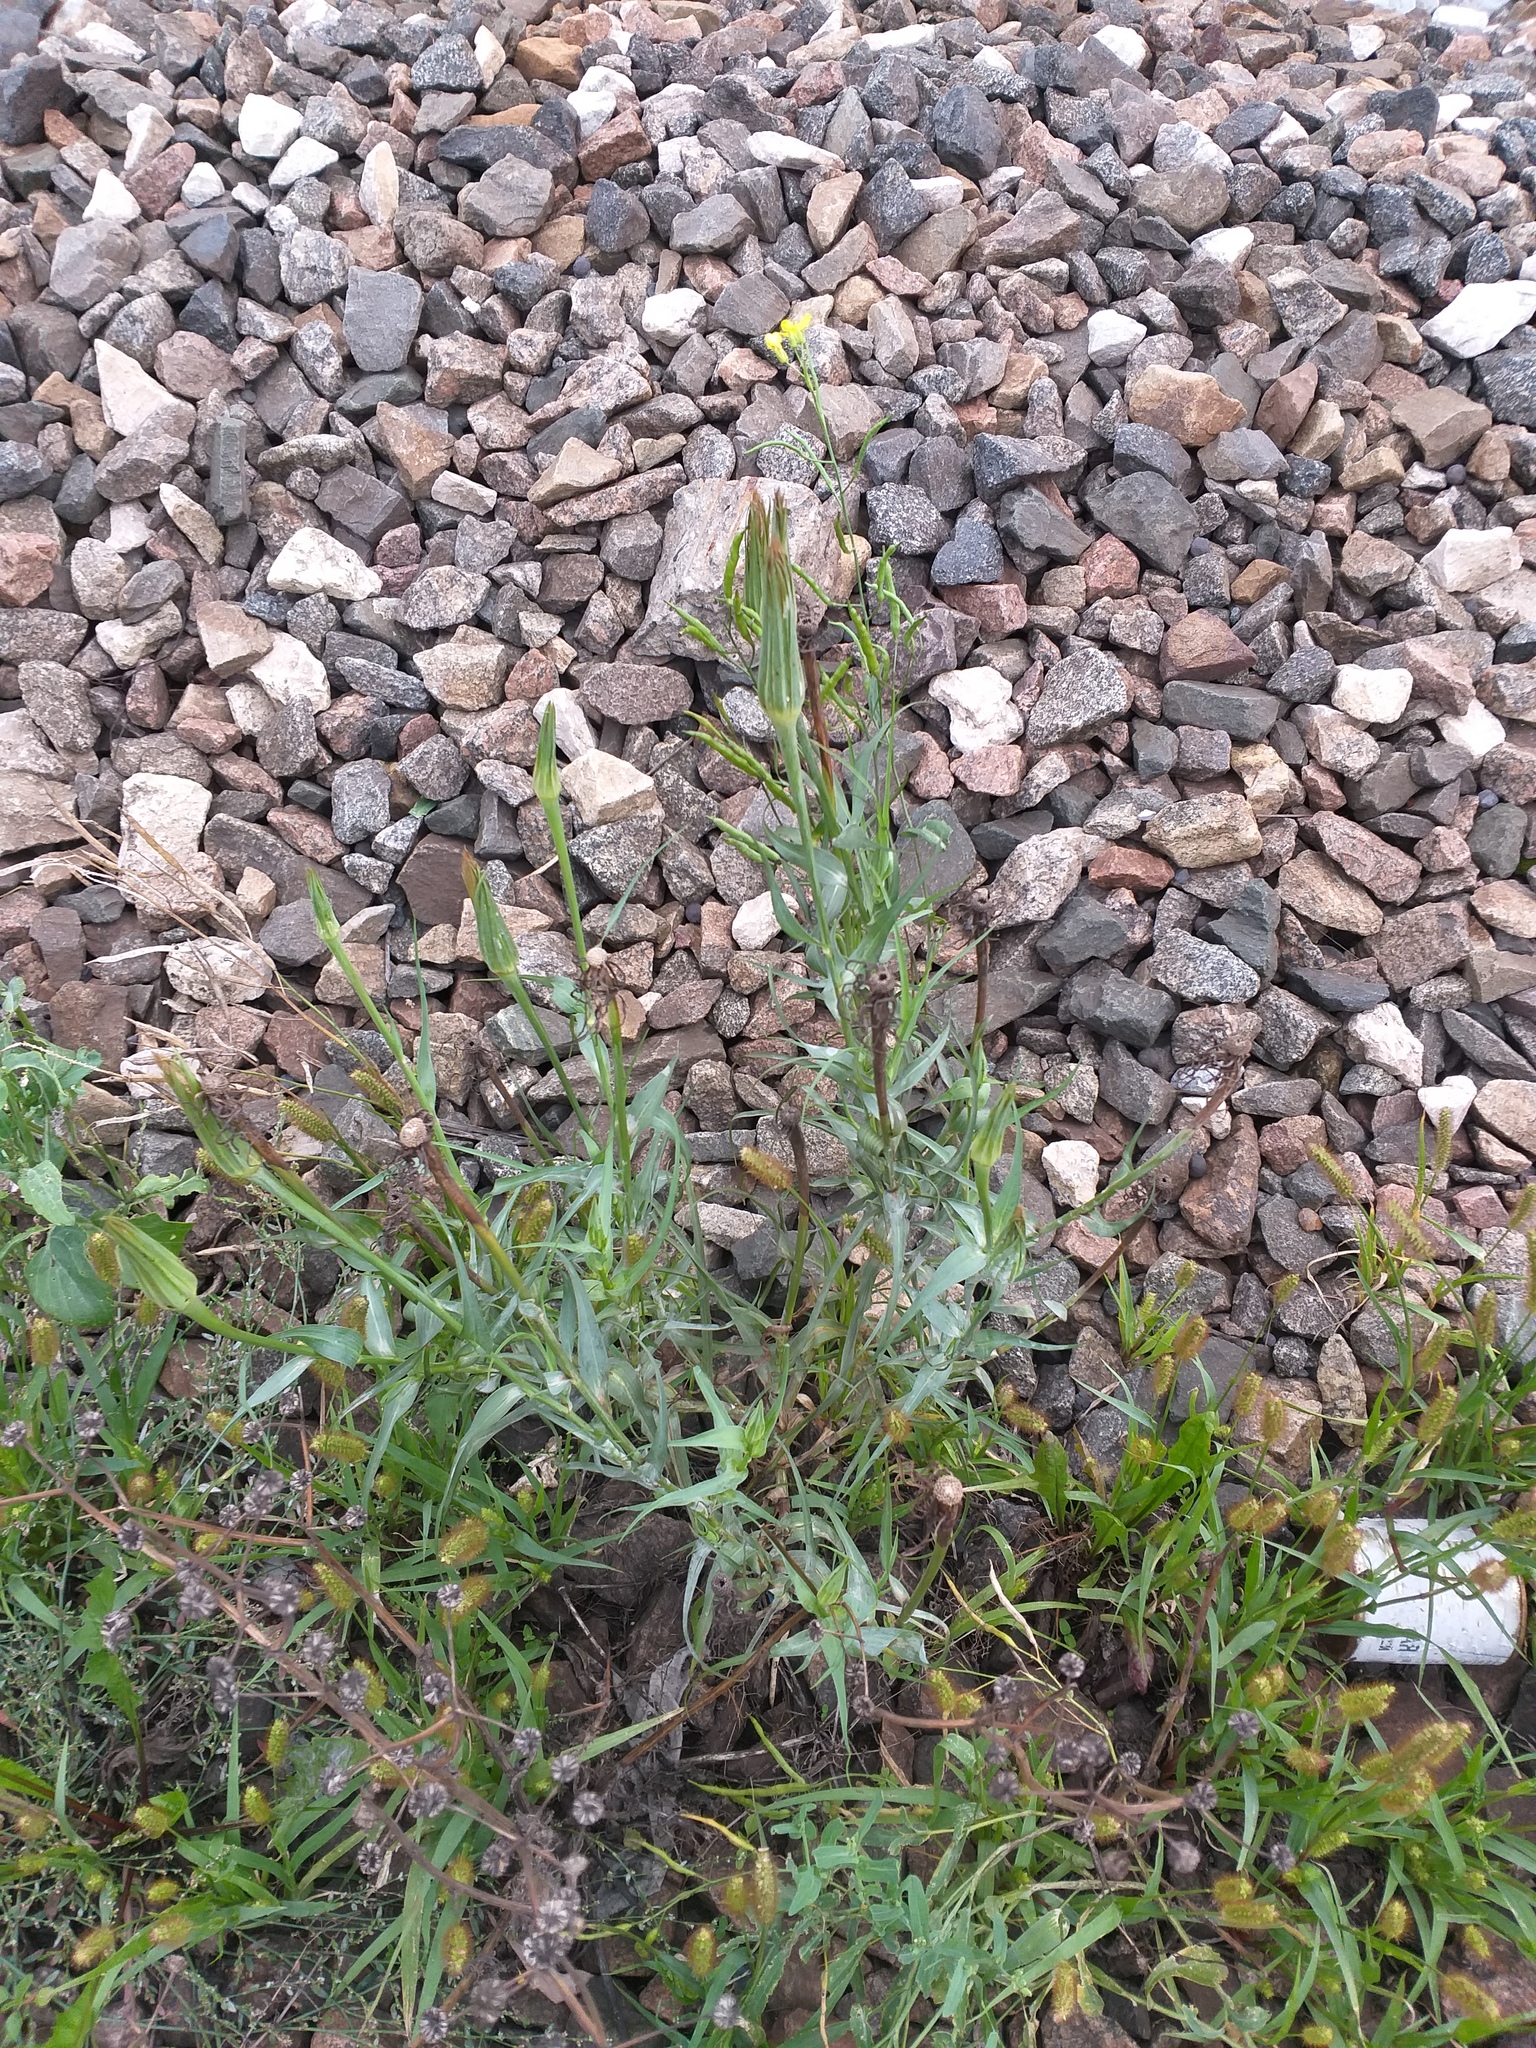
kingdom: Plantae
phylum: Tracheophyta
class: Magnoliopsida
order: Asterales
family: Asteraceae
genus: Tragopogon
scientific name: Tragopogon dubius
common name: Yellow salsify
